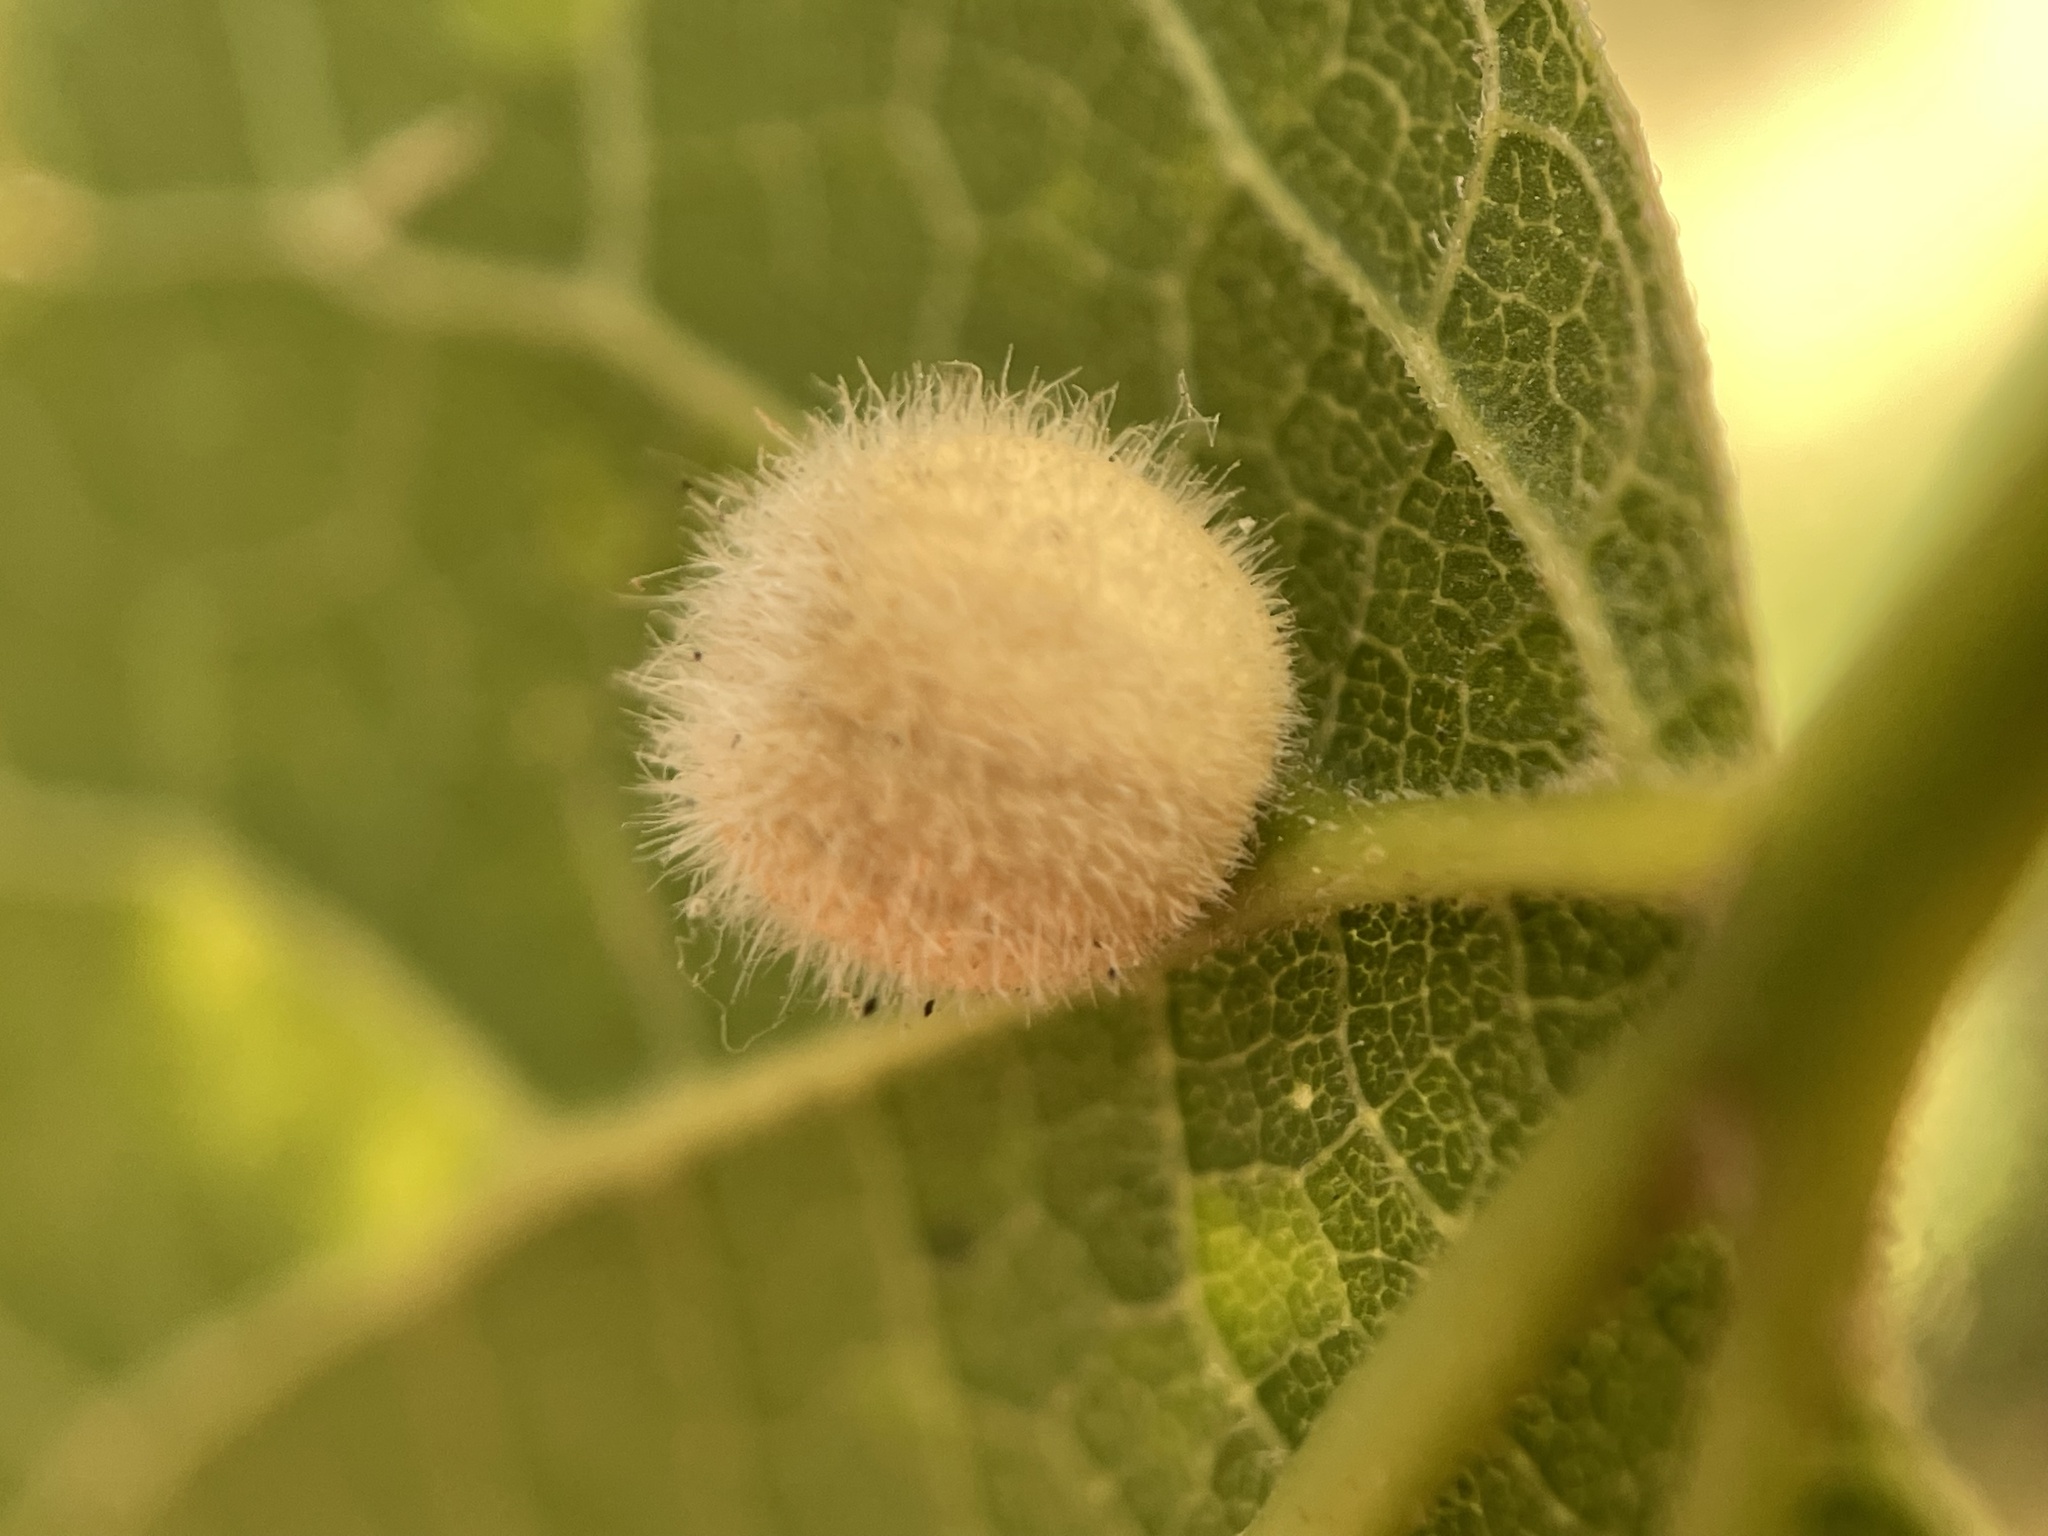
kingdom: Animalia
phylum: Arthropoda
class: Insecta
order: Diptera
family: Cecidomyiidae
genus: Celticecis
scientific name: Celticecis pubescens
